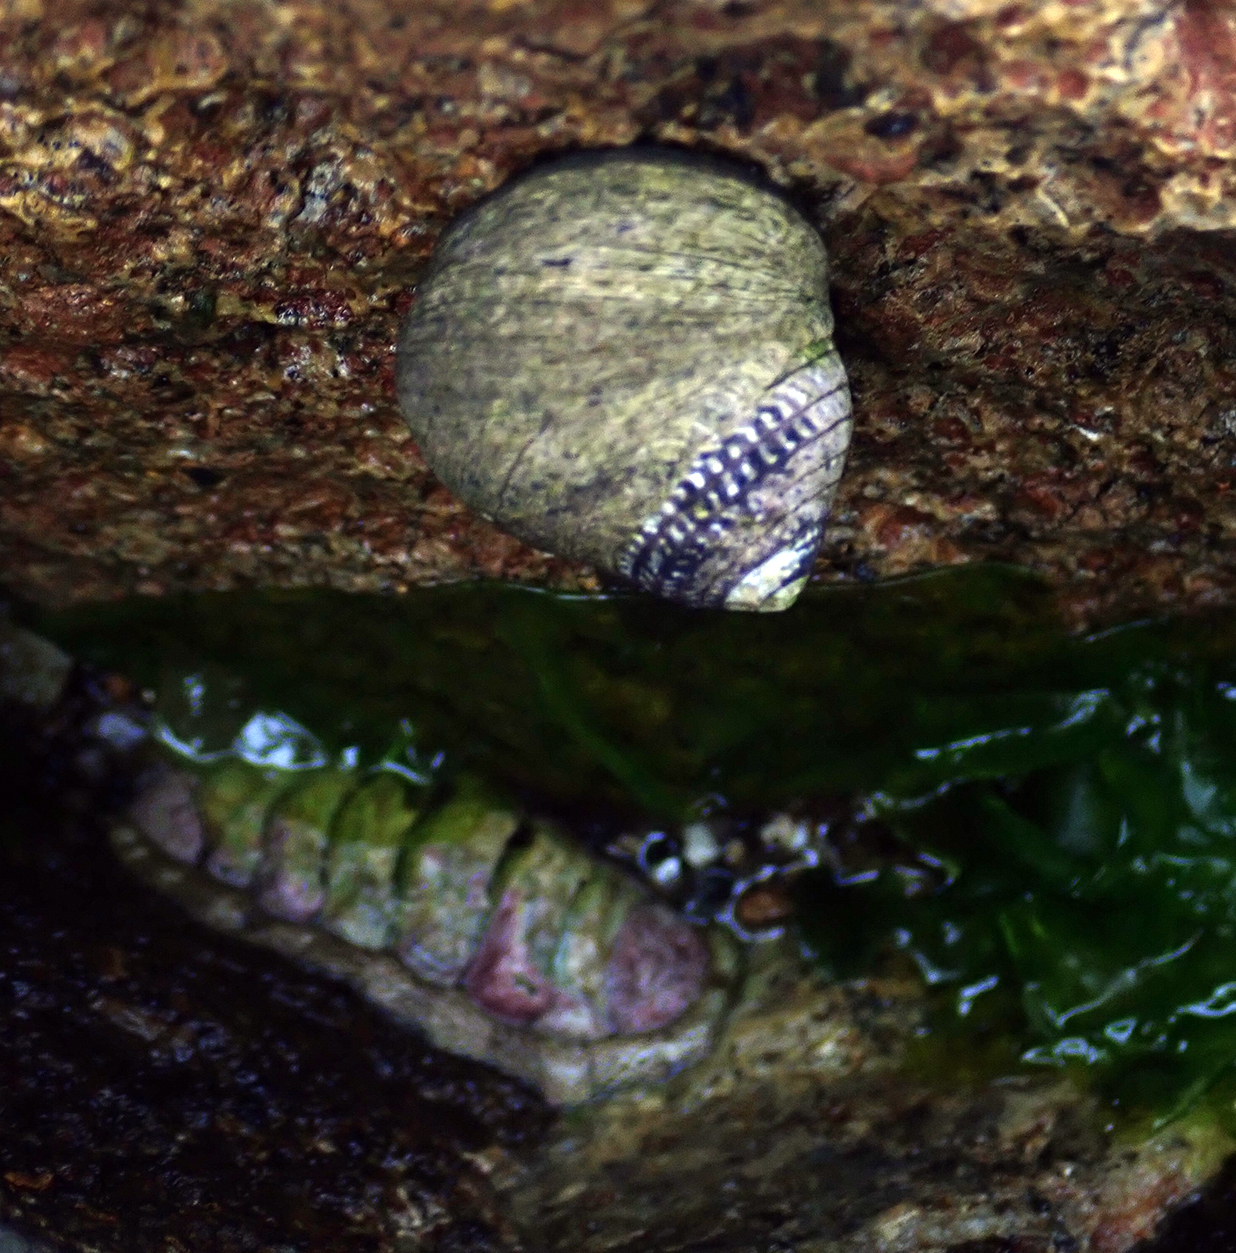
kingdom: Animalia
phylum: Mollusca
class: Gastropoda
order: Trochida
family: Trochidae
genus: Diloma
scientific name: Diloma aethiops
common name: Scorched monodont
